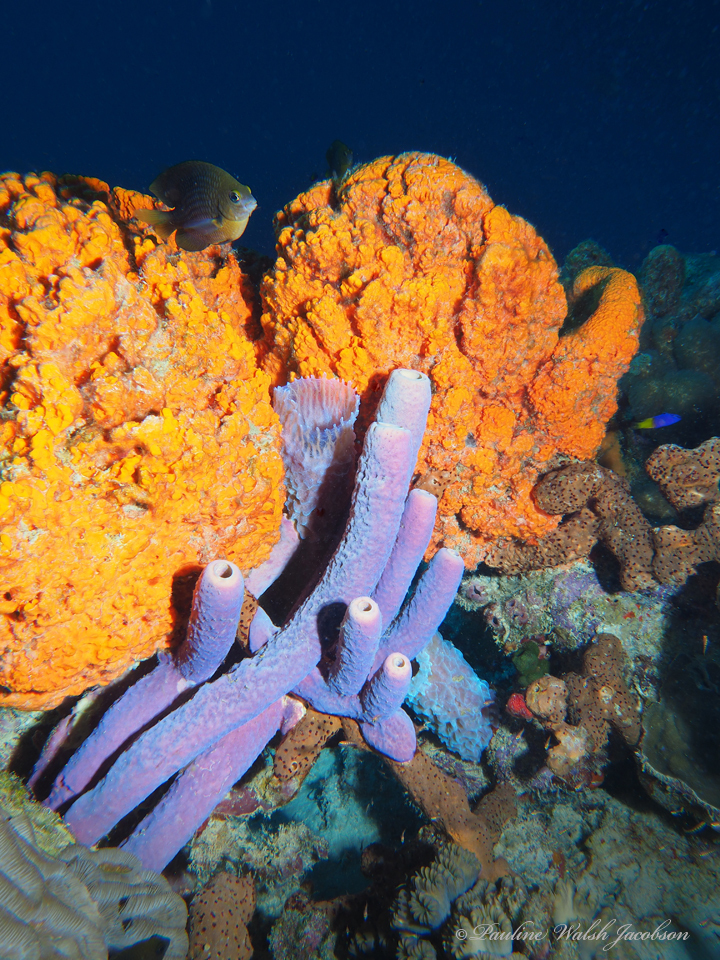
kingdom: Animalia
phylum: Porifera
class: Demospongiae
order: Agelasida
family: Agelasidae
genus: Agelas
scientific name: Agelas clathrodes
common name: Orange elephant ear sponge
